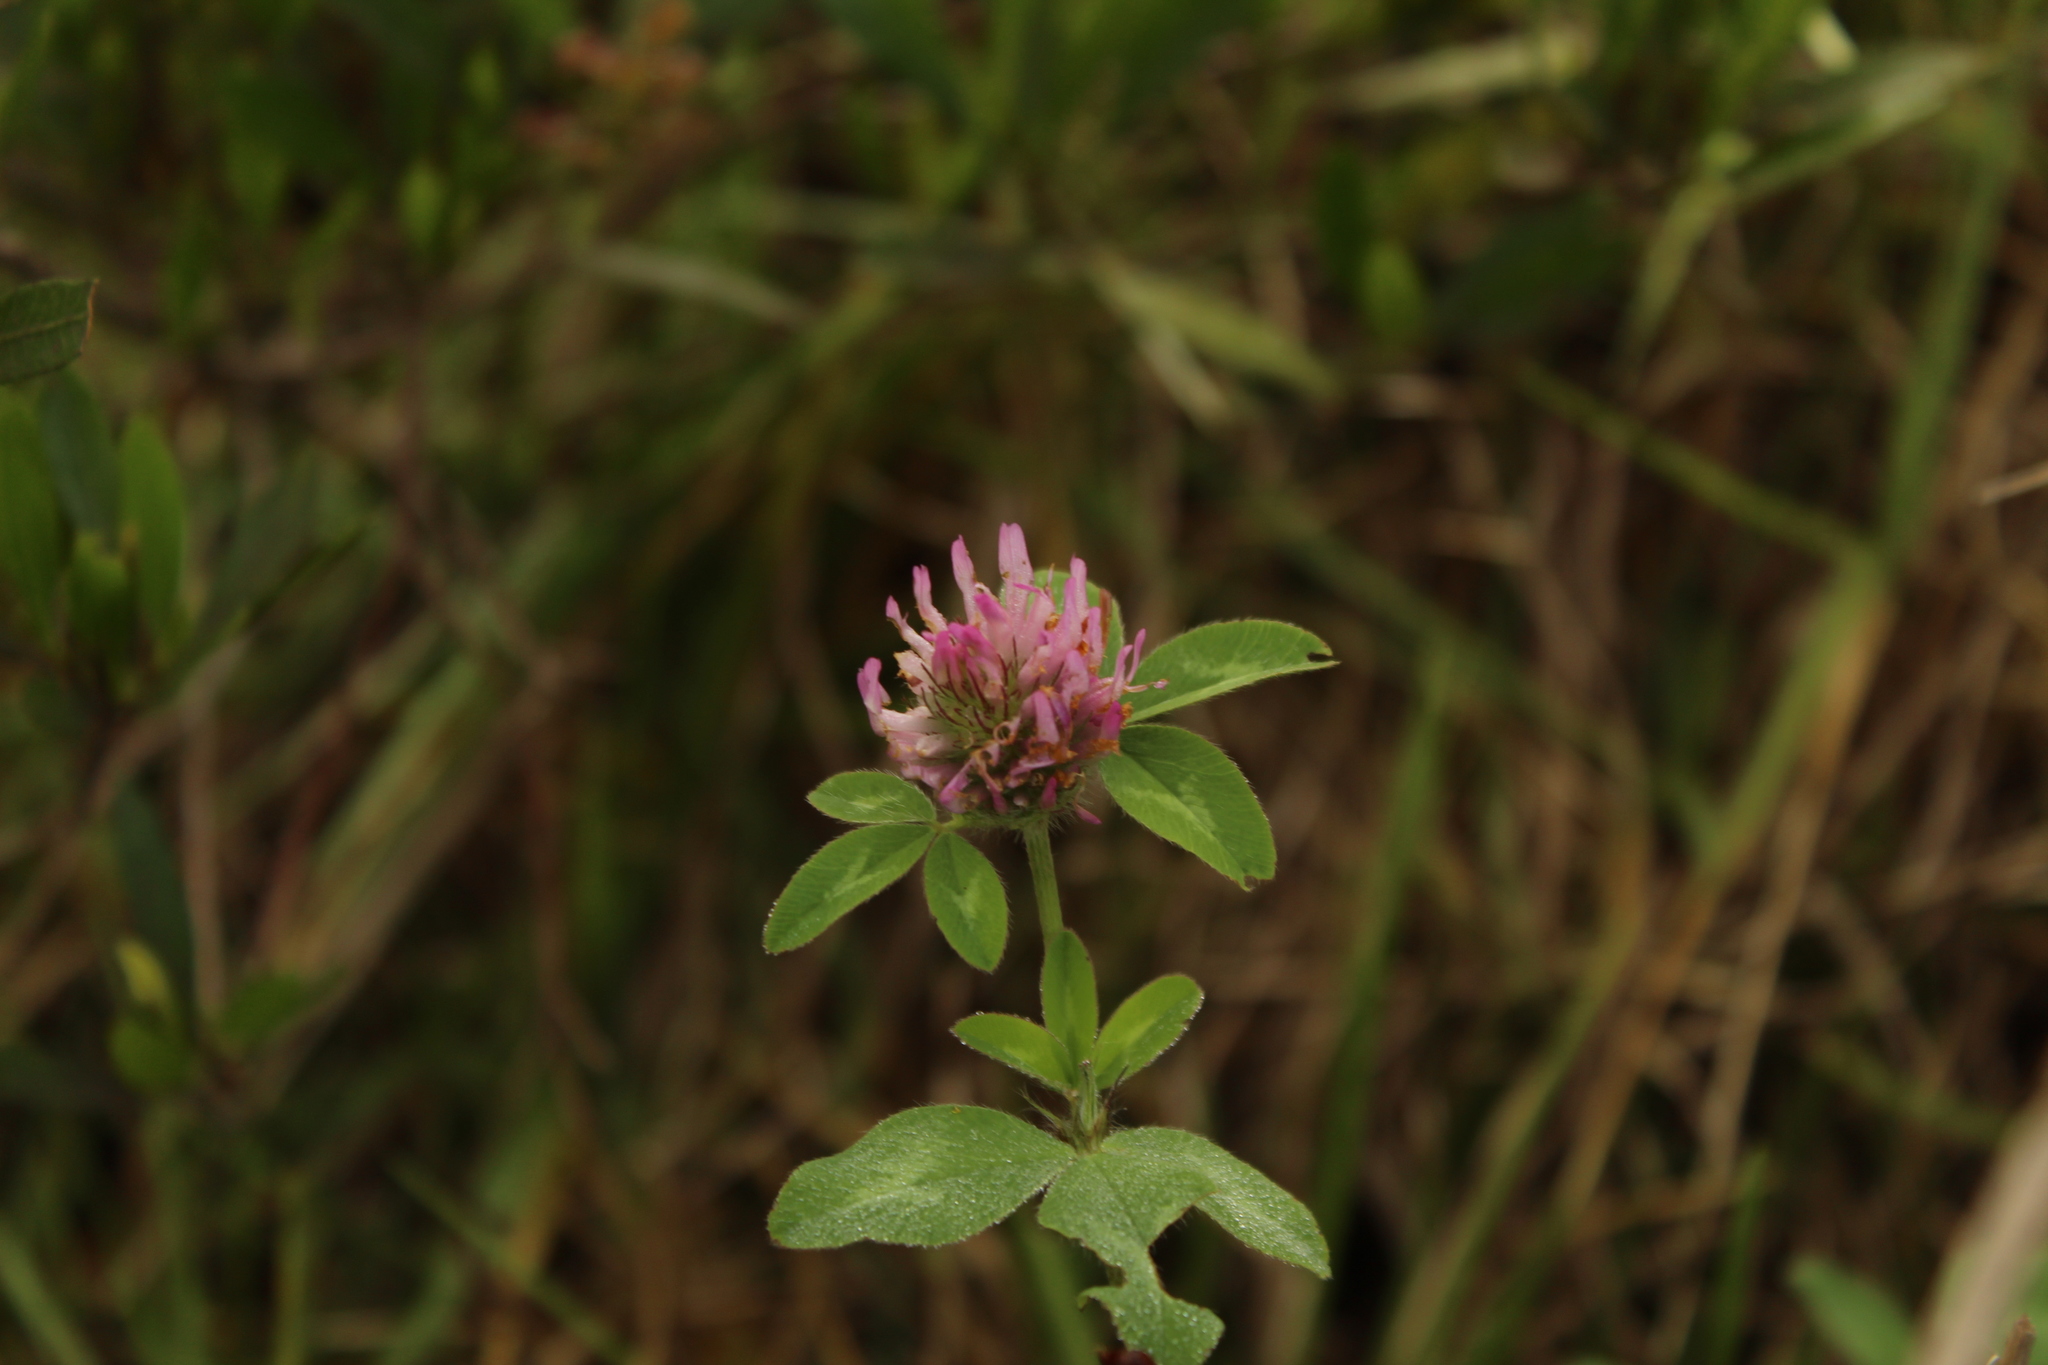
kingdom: Plantae
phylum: Tracheophyta
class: Magnoliopsida
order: Fabales
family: Fabaceae
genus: Trifolium
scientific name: Trifolium pratense
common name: Red clover
